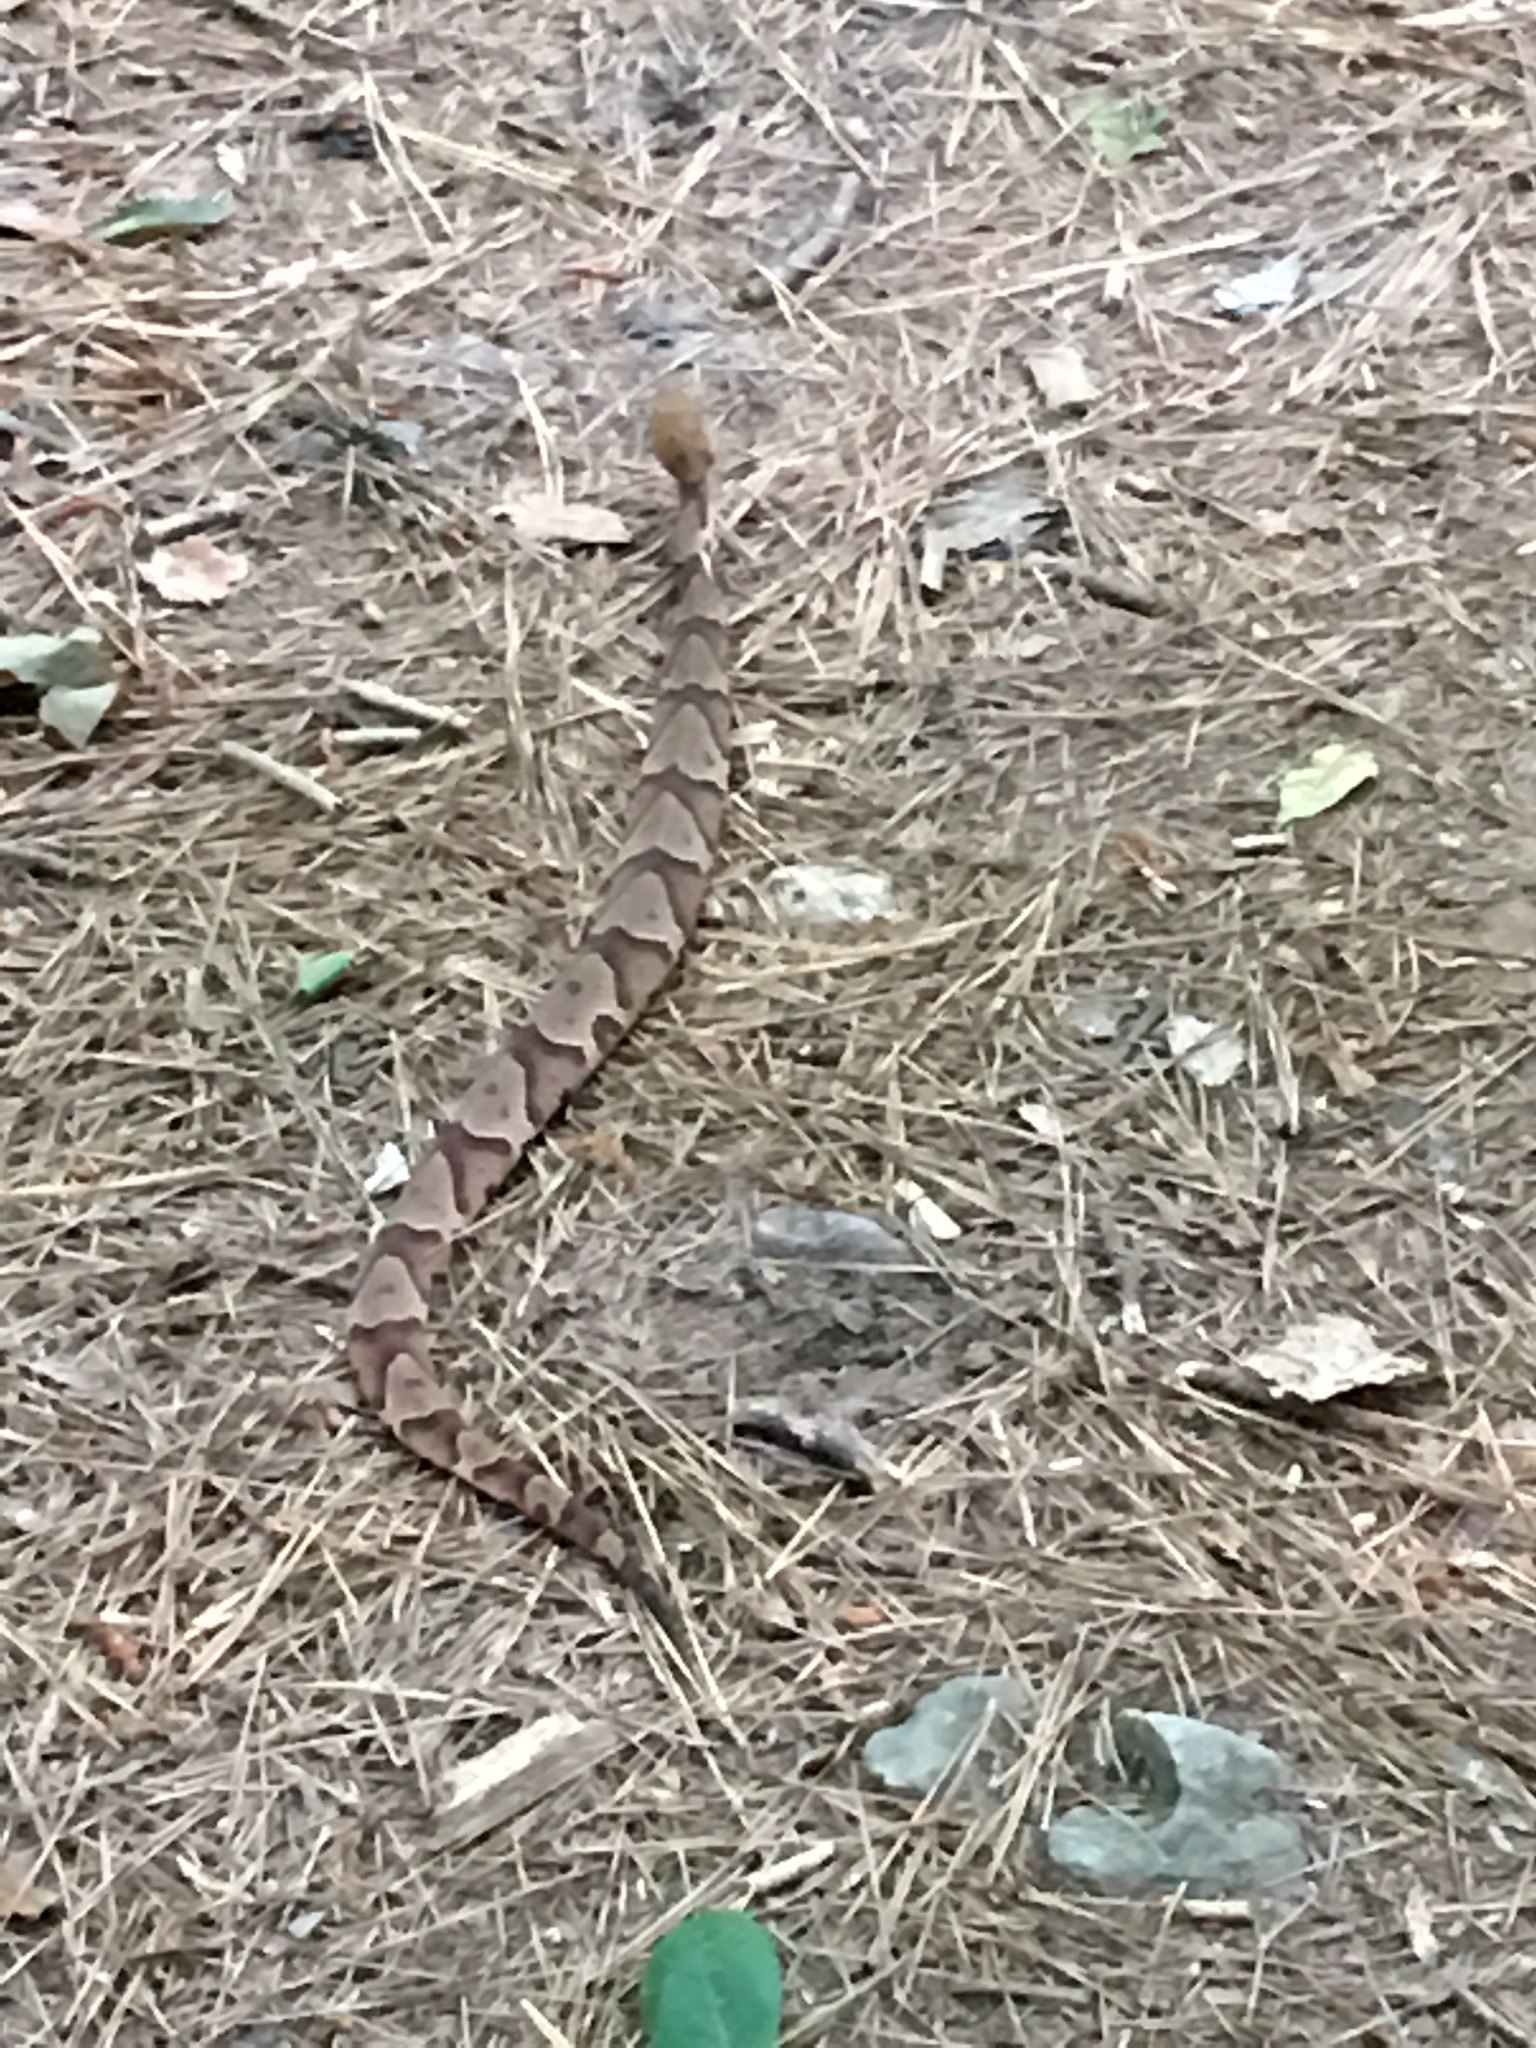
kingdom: Animalia
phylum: Chordata
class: Squamata
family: Viperidae
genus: Agkistrodon
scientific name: Agkistrodon contortrix
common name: Northern copperhead
